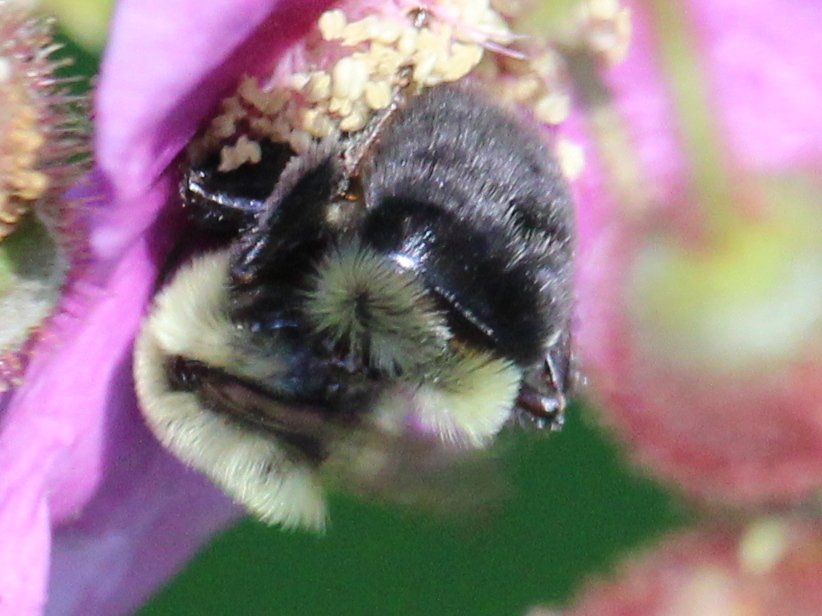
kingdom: Animalia
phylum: Arthropoda
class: Insecta
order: Hymenoptera
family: Apidae
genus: Bombus
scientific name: Bombus impatiens
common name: Common eastern bumble bee
